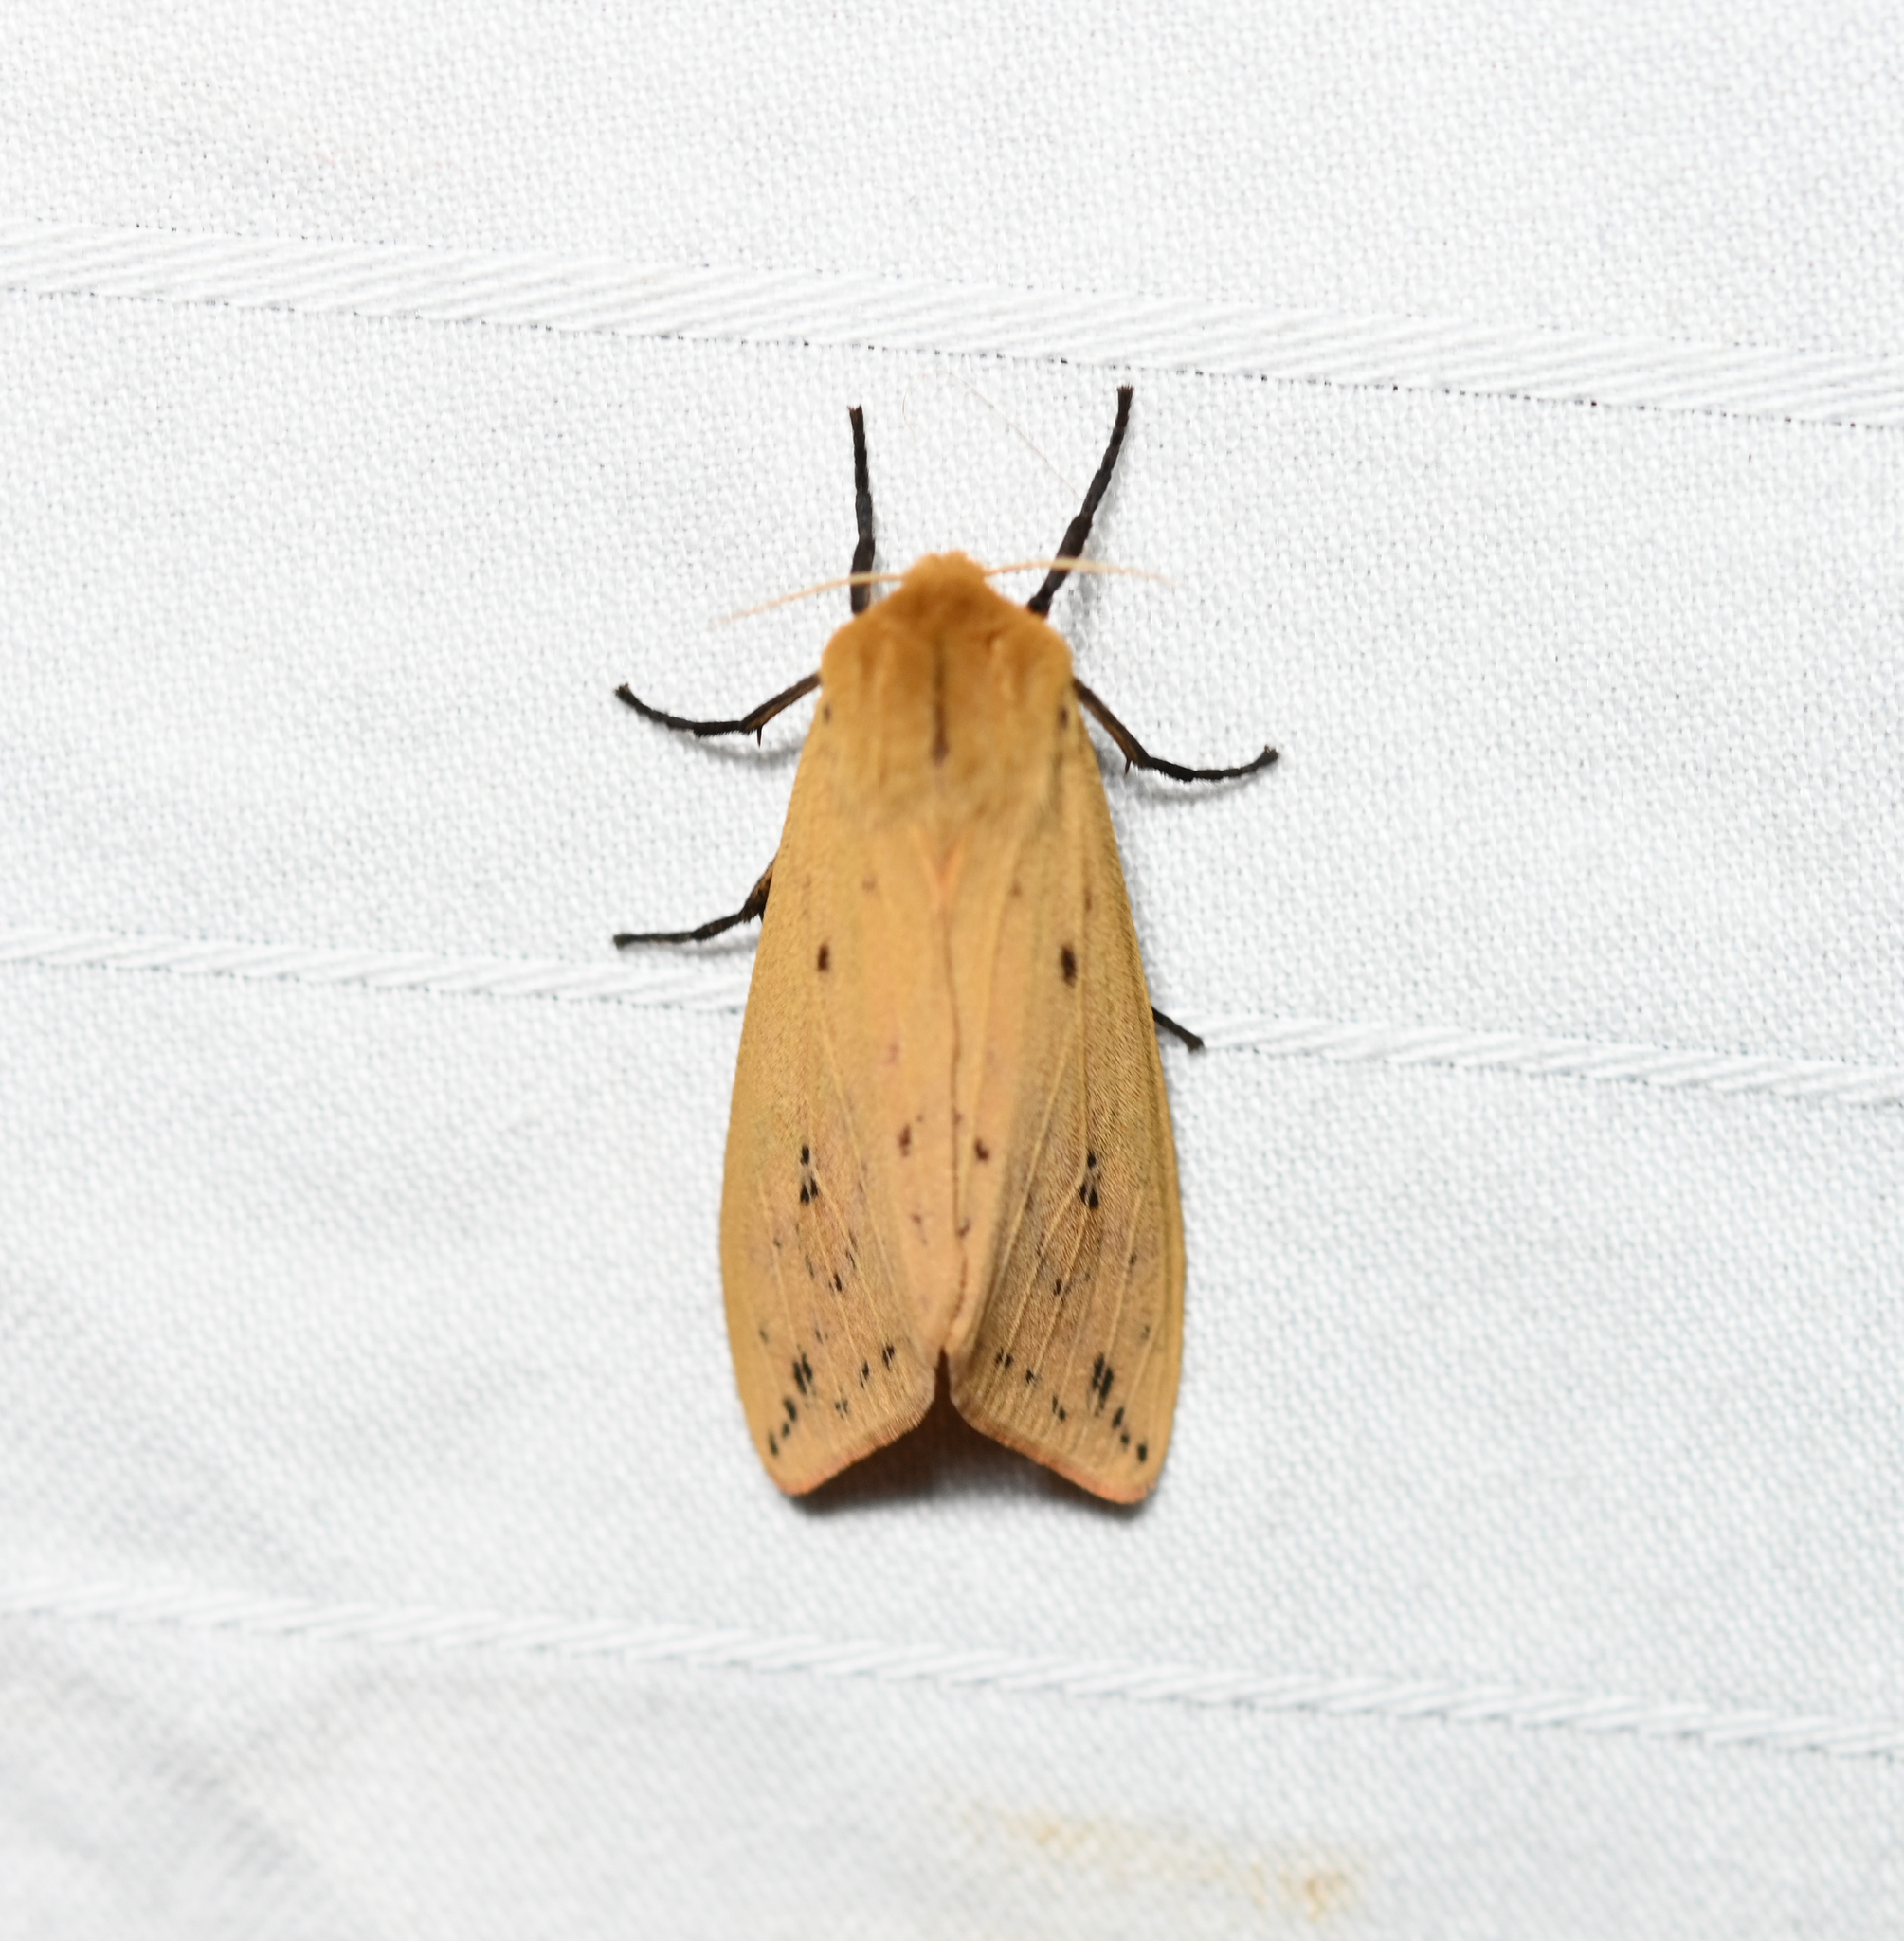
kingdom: Animalia
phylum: Arthropoda
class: Insecta
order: Lepidoptera
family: Erebidae
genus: Pyrrharctia
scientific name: Pyrrharctia isabella
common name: Isabella tiger moth
